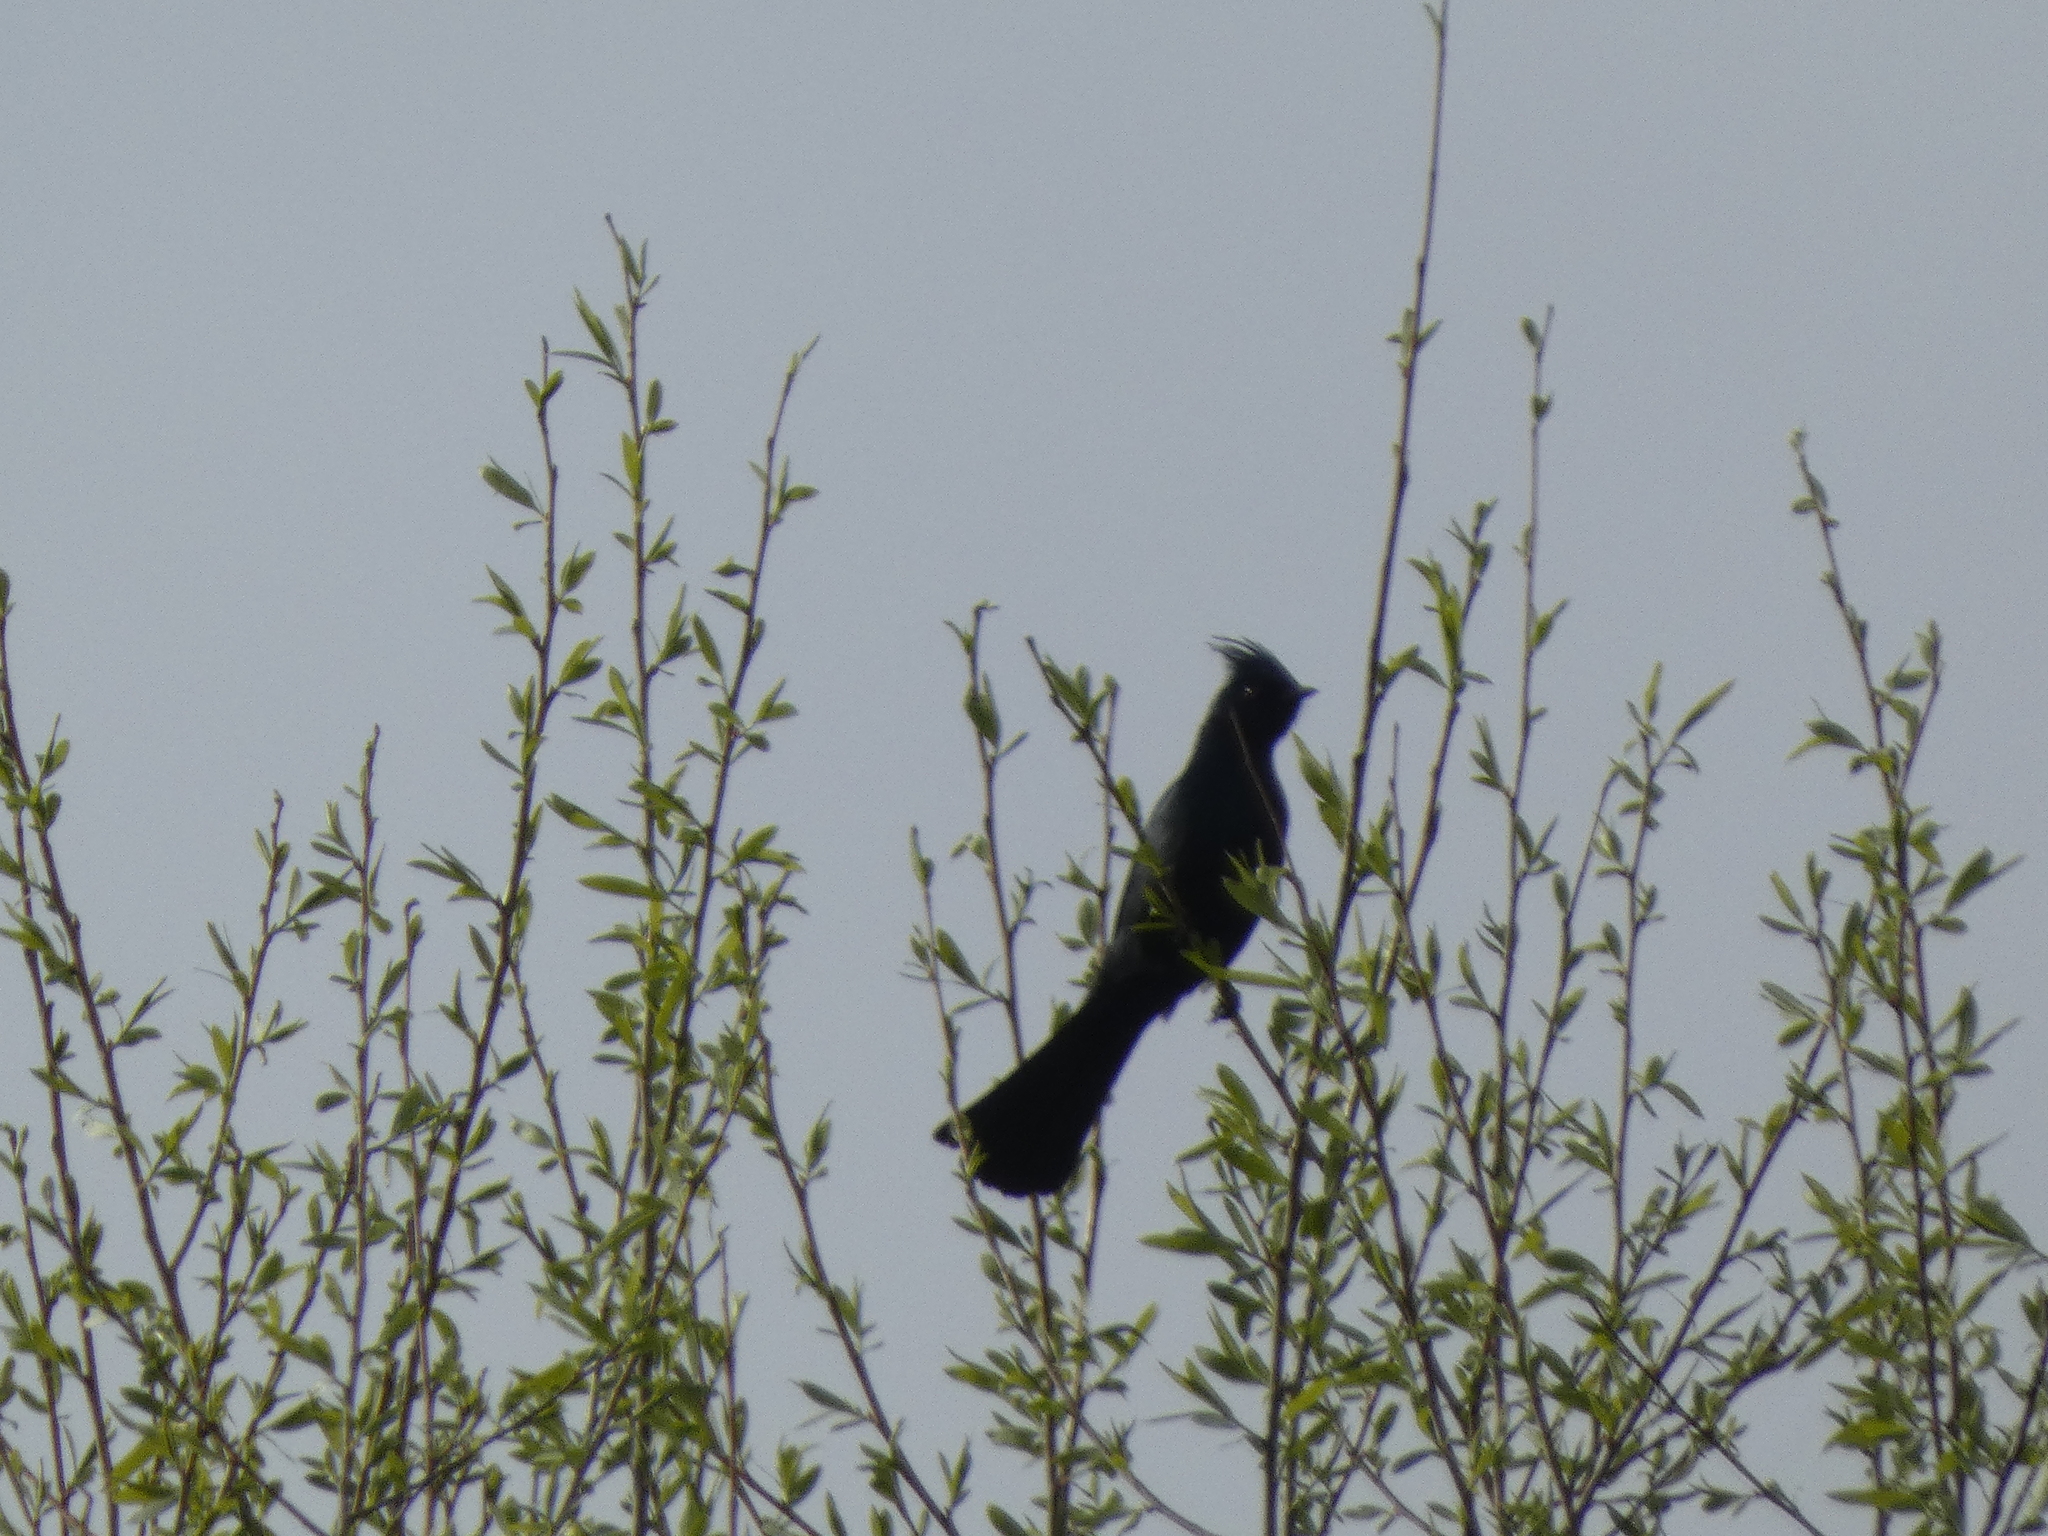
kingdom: Animalia
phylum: Chordata
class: Aves
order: Passeriformes
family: Ptilogonatidae
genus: Phainopepla
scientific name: Phainopepla nitens
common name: Phainopepla
